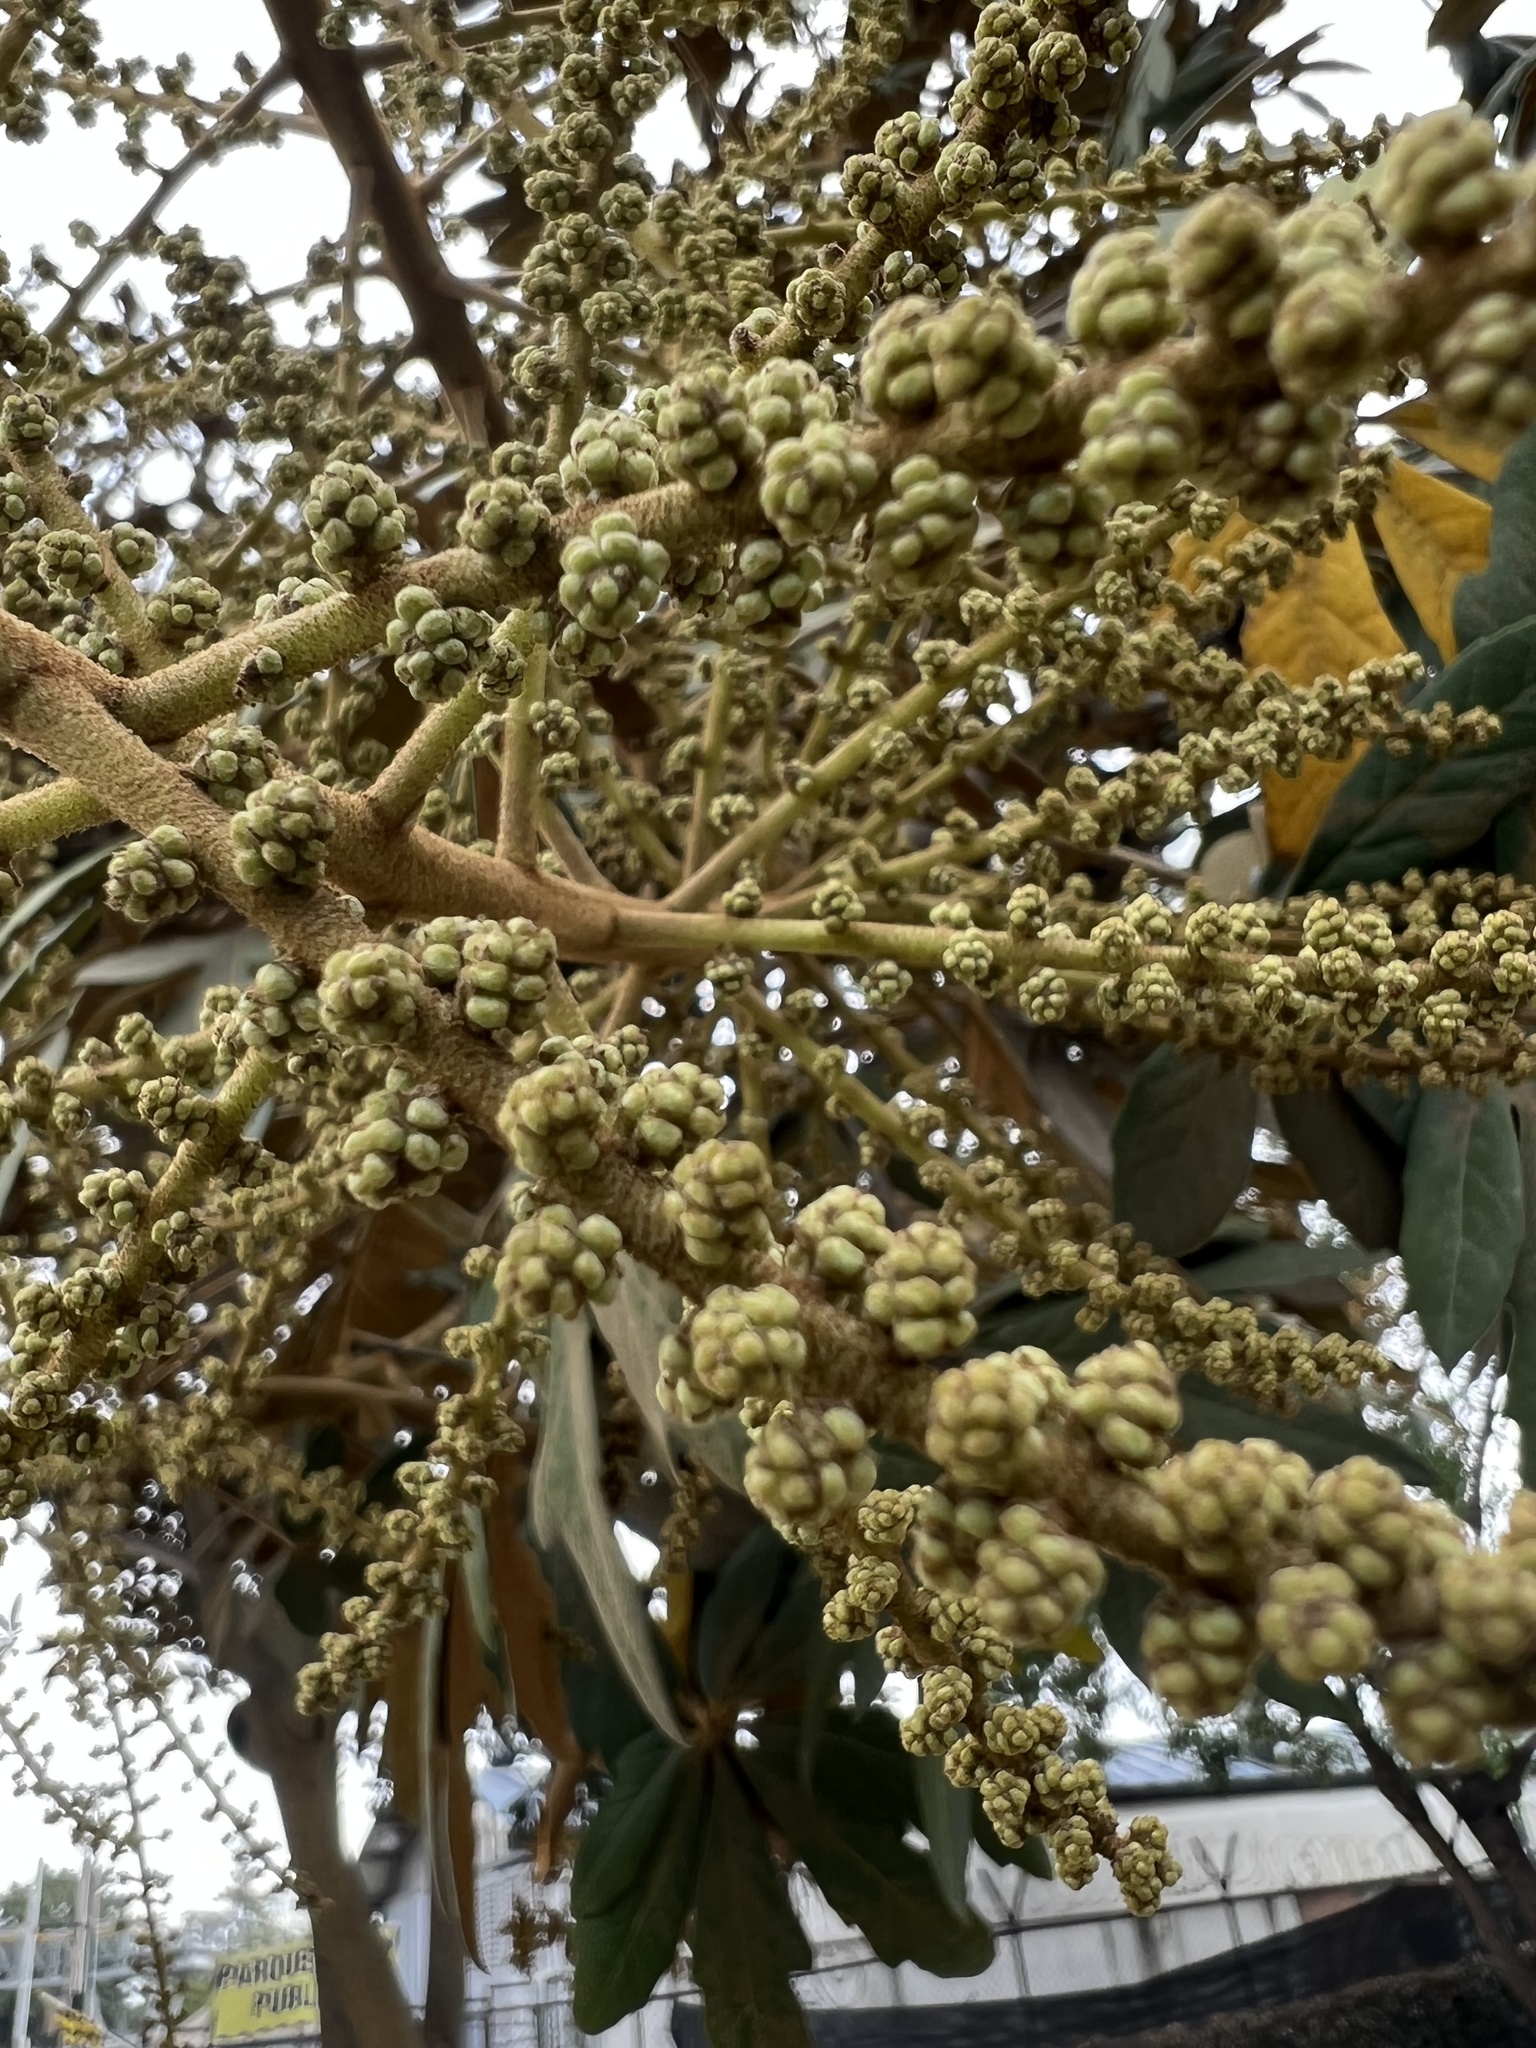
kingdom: Plantae
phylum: Tracheophyta
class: Magnoliopsida
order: Apiales
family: Araliaceae
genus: Oreopanax
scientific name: Oreopanax incisus
